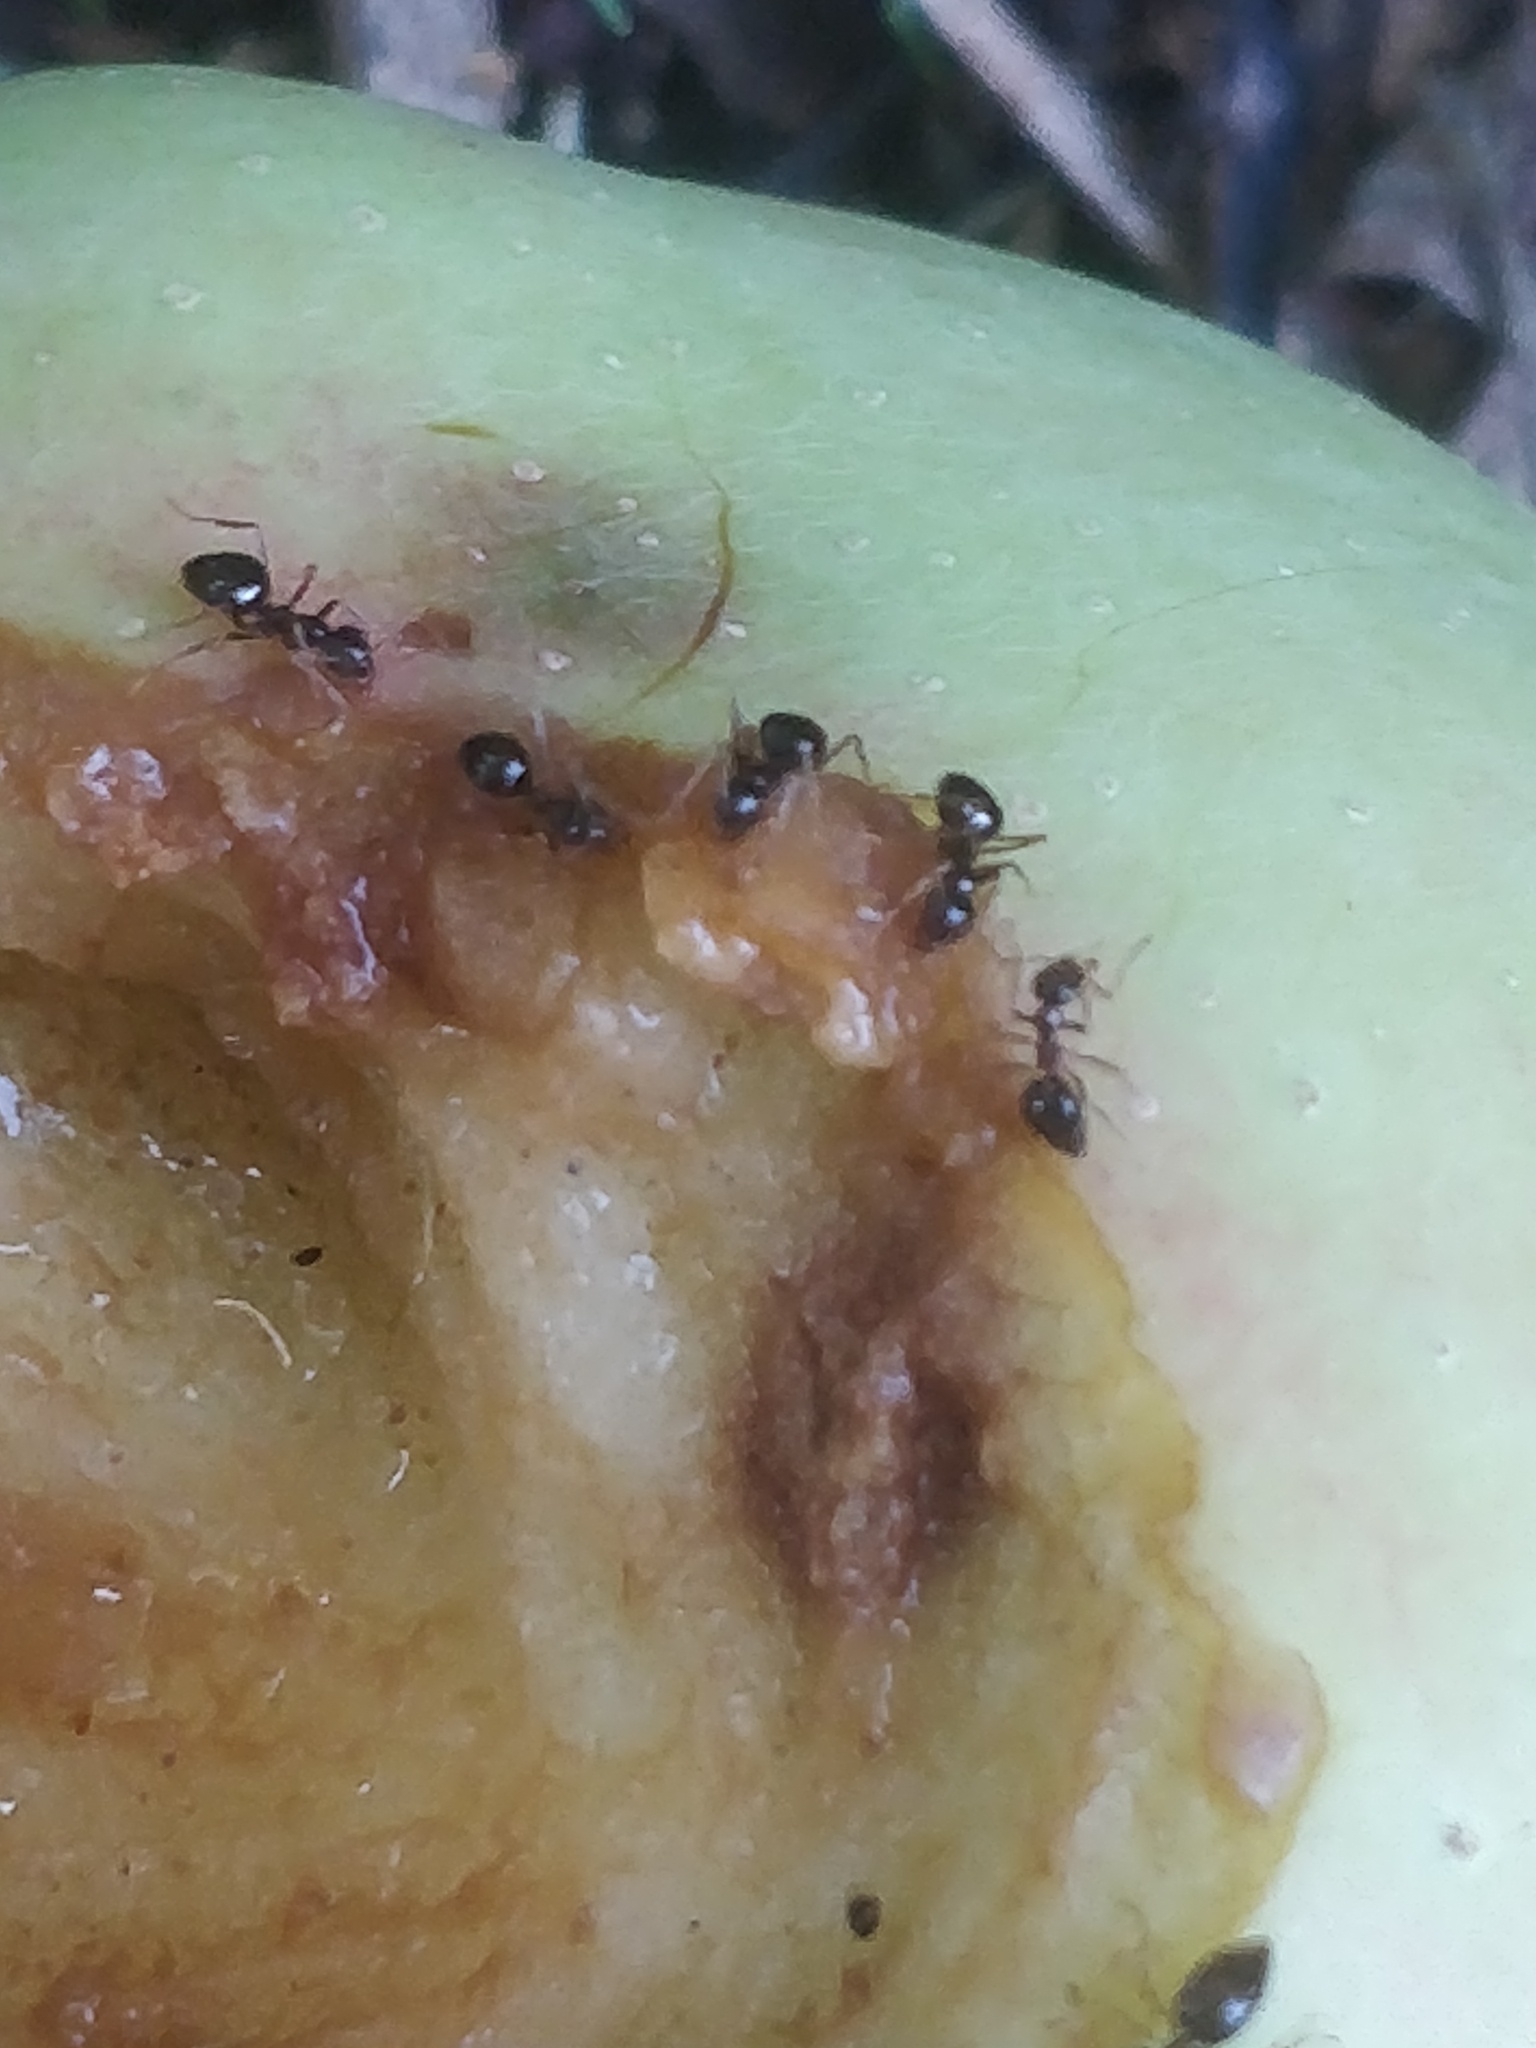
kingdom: Animalia
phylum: Arthropoda
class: Insecta
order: Hymenoptera
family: Formicidae
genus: Prenolepis
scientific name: Prenolepis imparis
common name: Small honey ant
